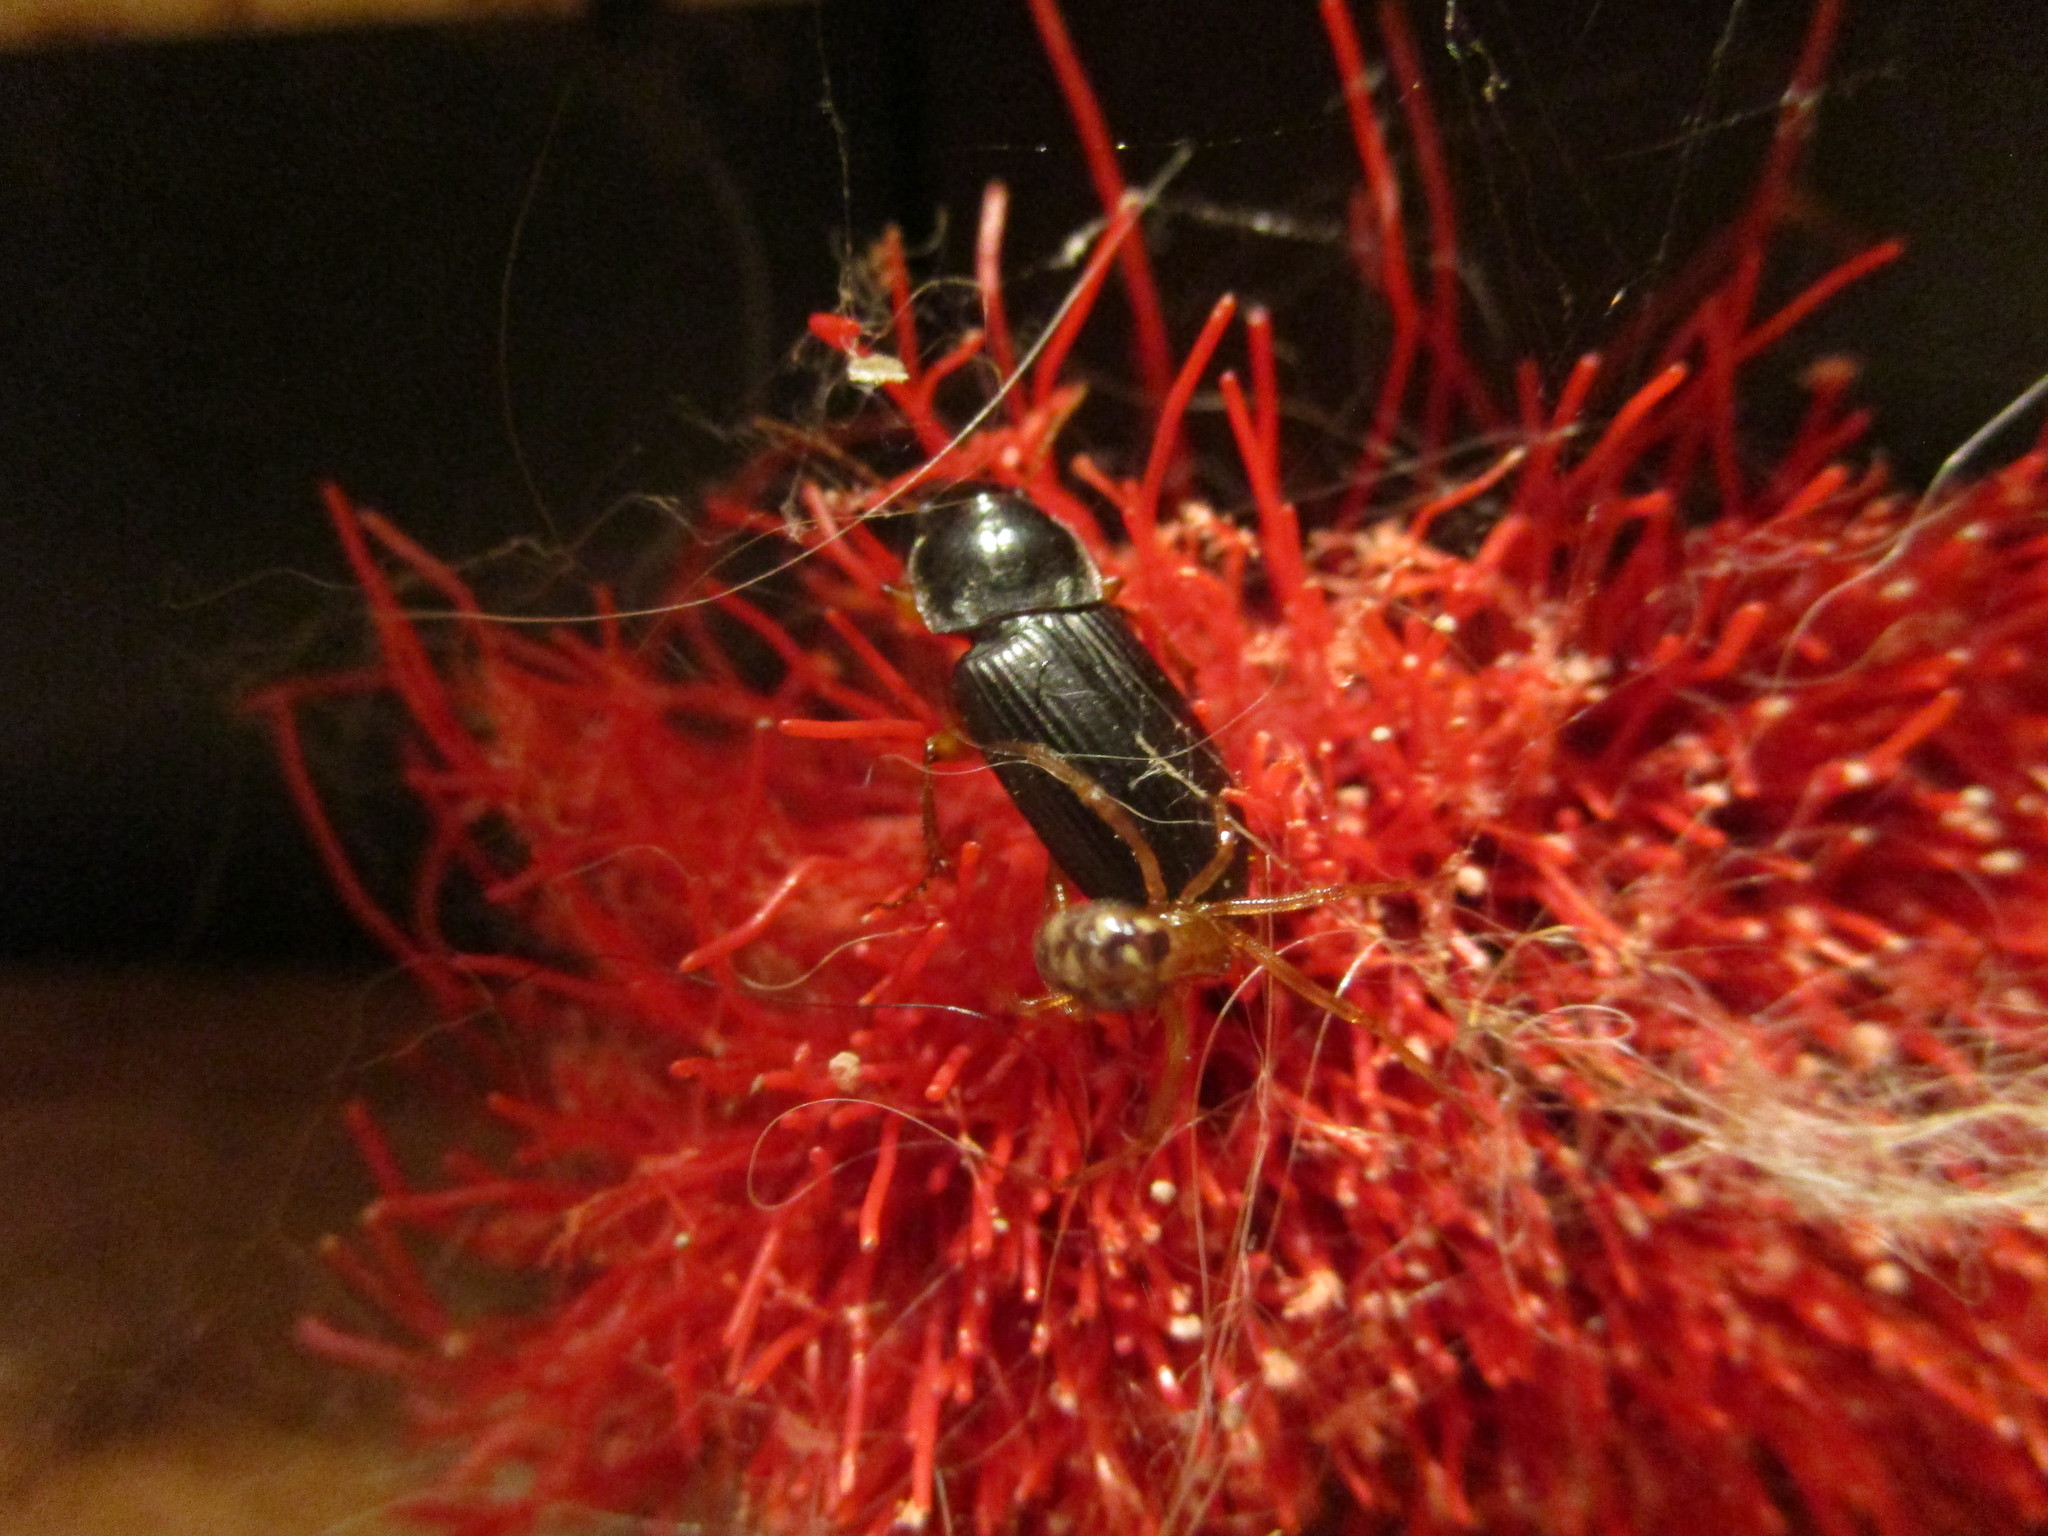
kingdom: Animalia
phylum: Arthropoda
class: Insecta
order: Coleoptera
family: Carabidae
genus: Harpalus
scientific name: Harpalus pensylvanicus
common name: Pennsylvania dingy ground beetle
